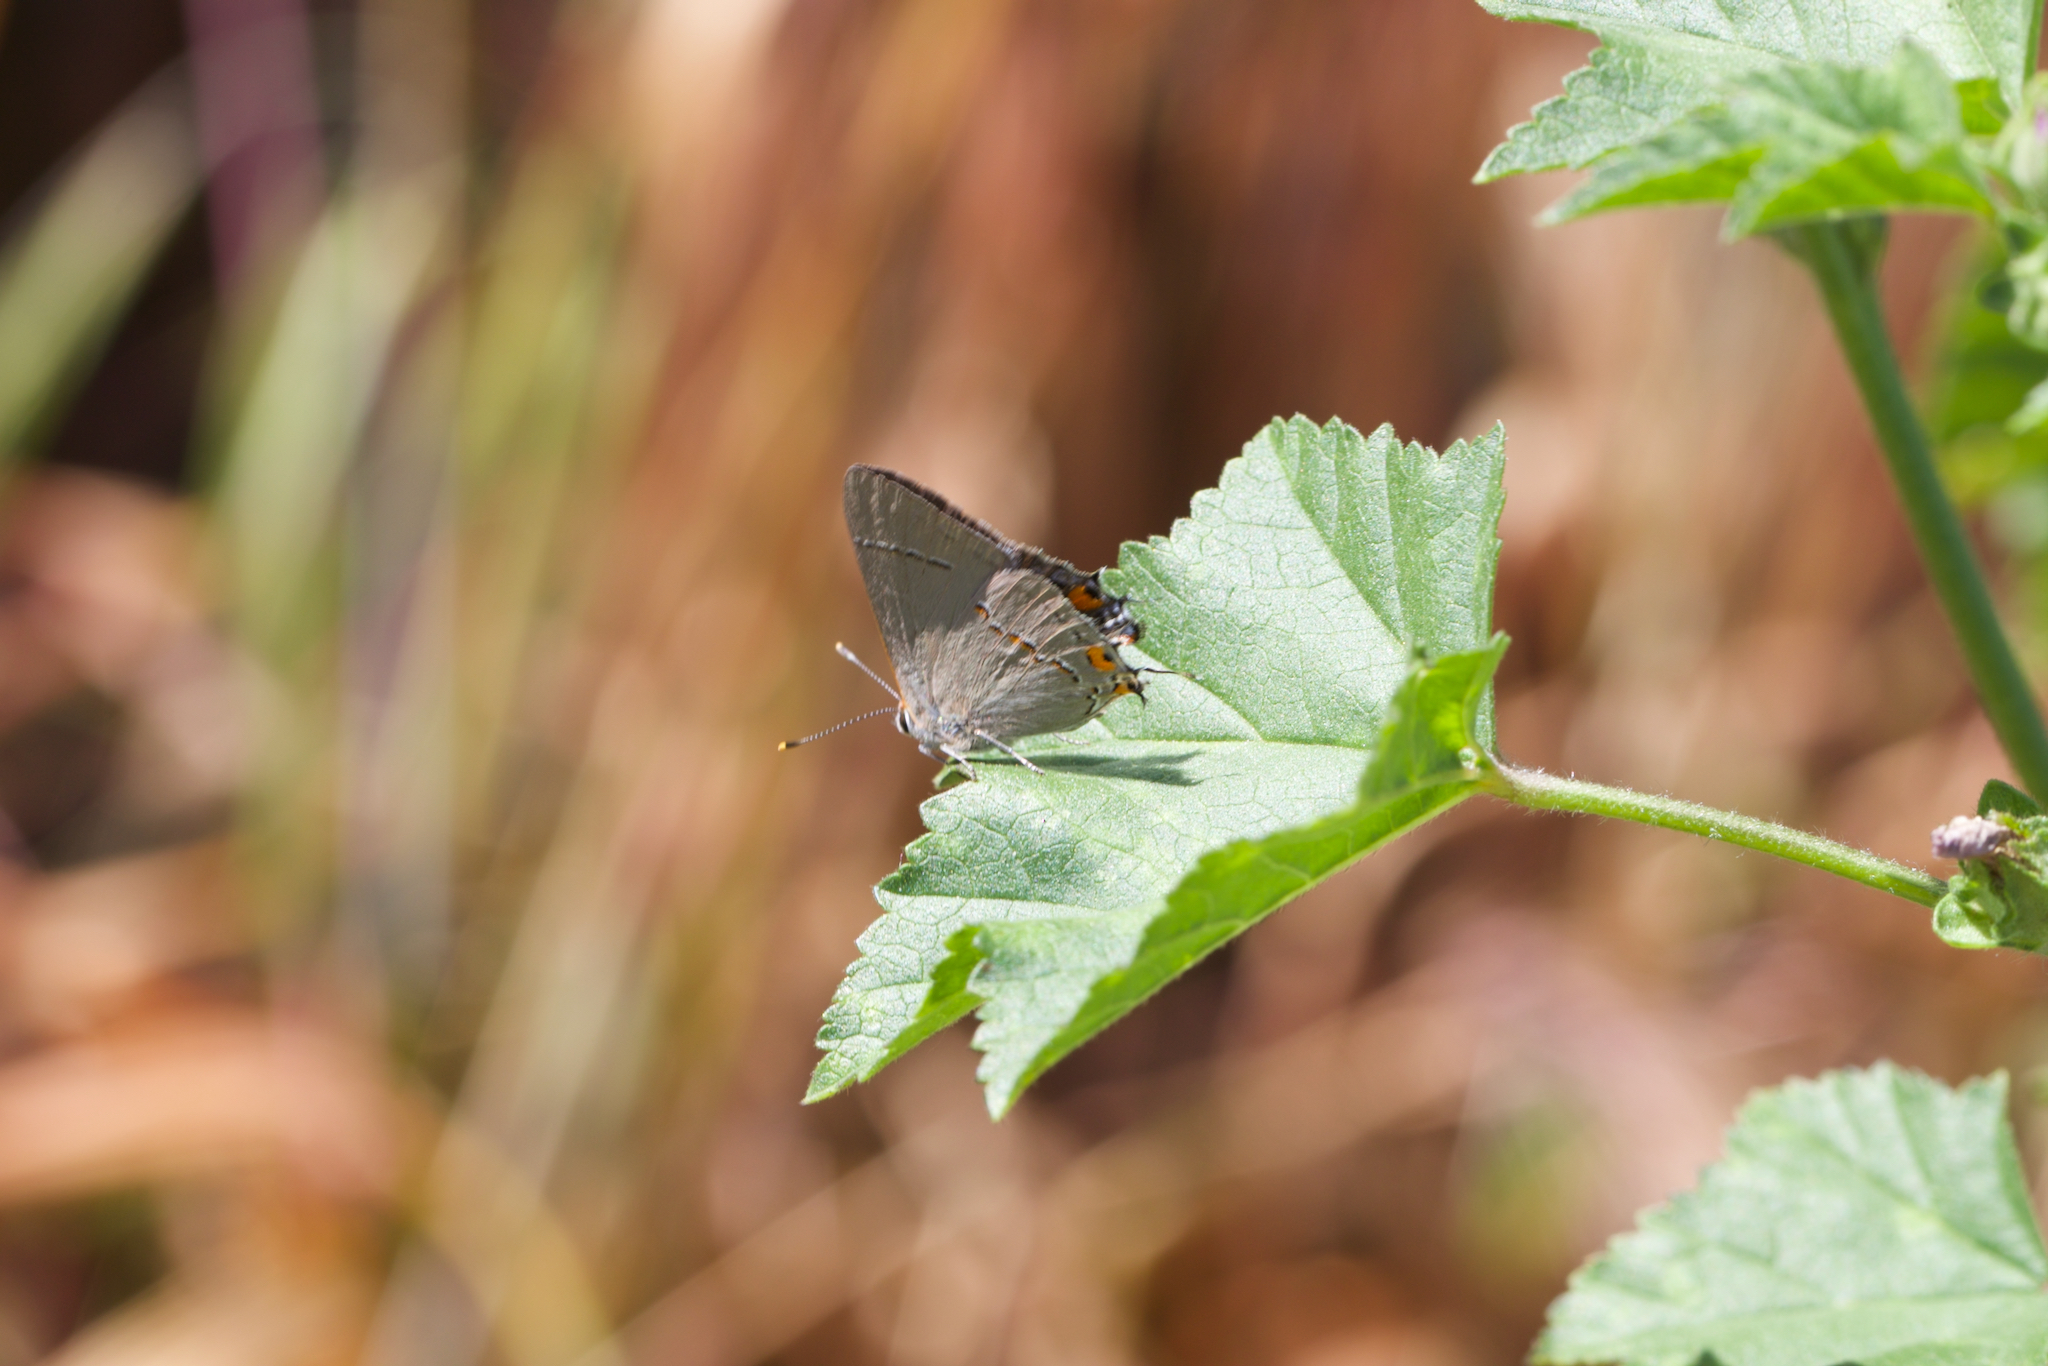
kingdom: Animalia
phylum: Arthropoda
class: Insecta
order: Lepidoptera
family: Lycaenidae
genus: Strymon
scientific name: Strymon melinus
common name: Gray hairstreak
